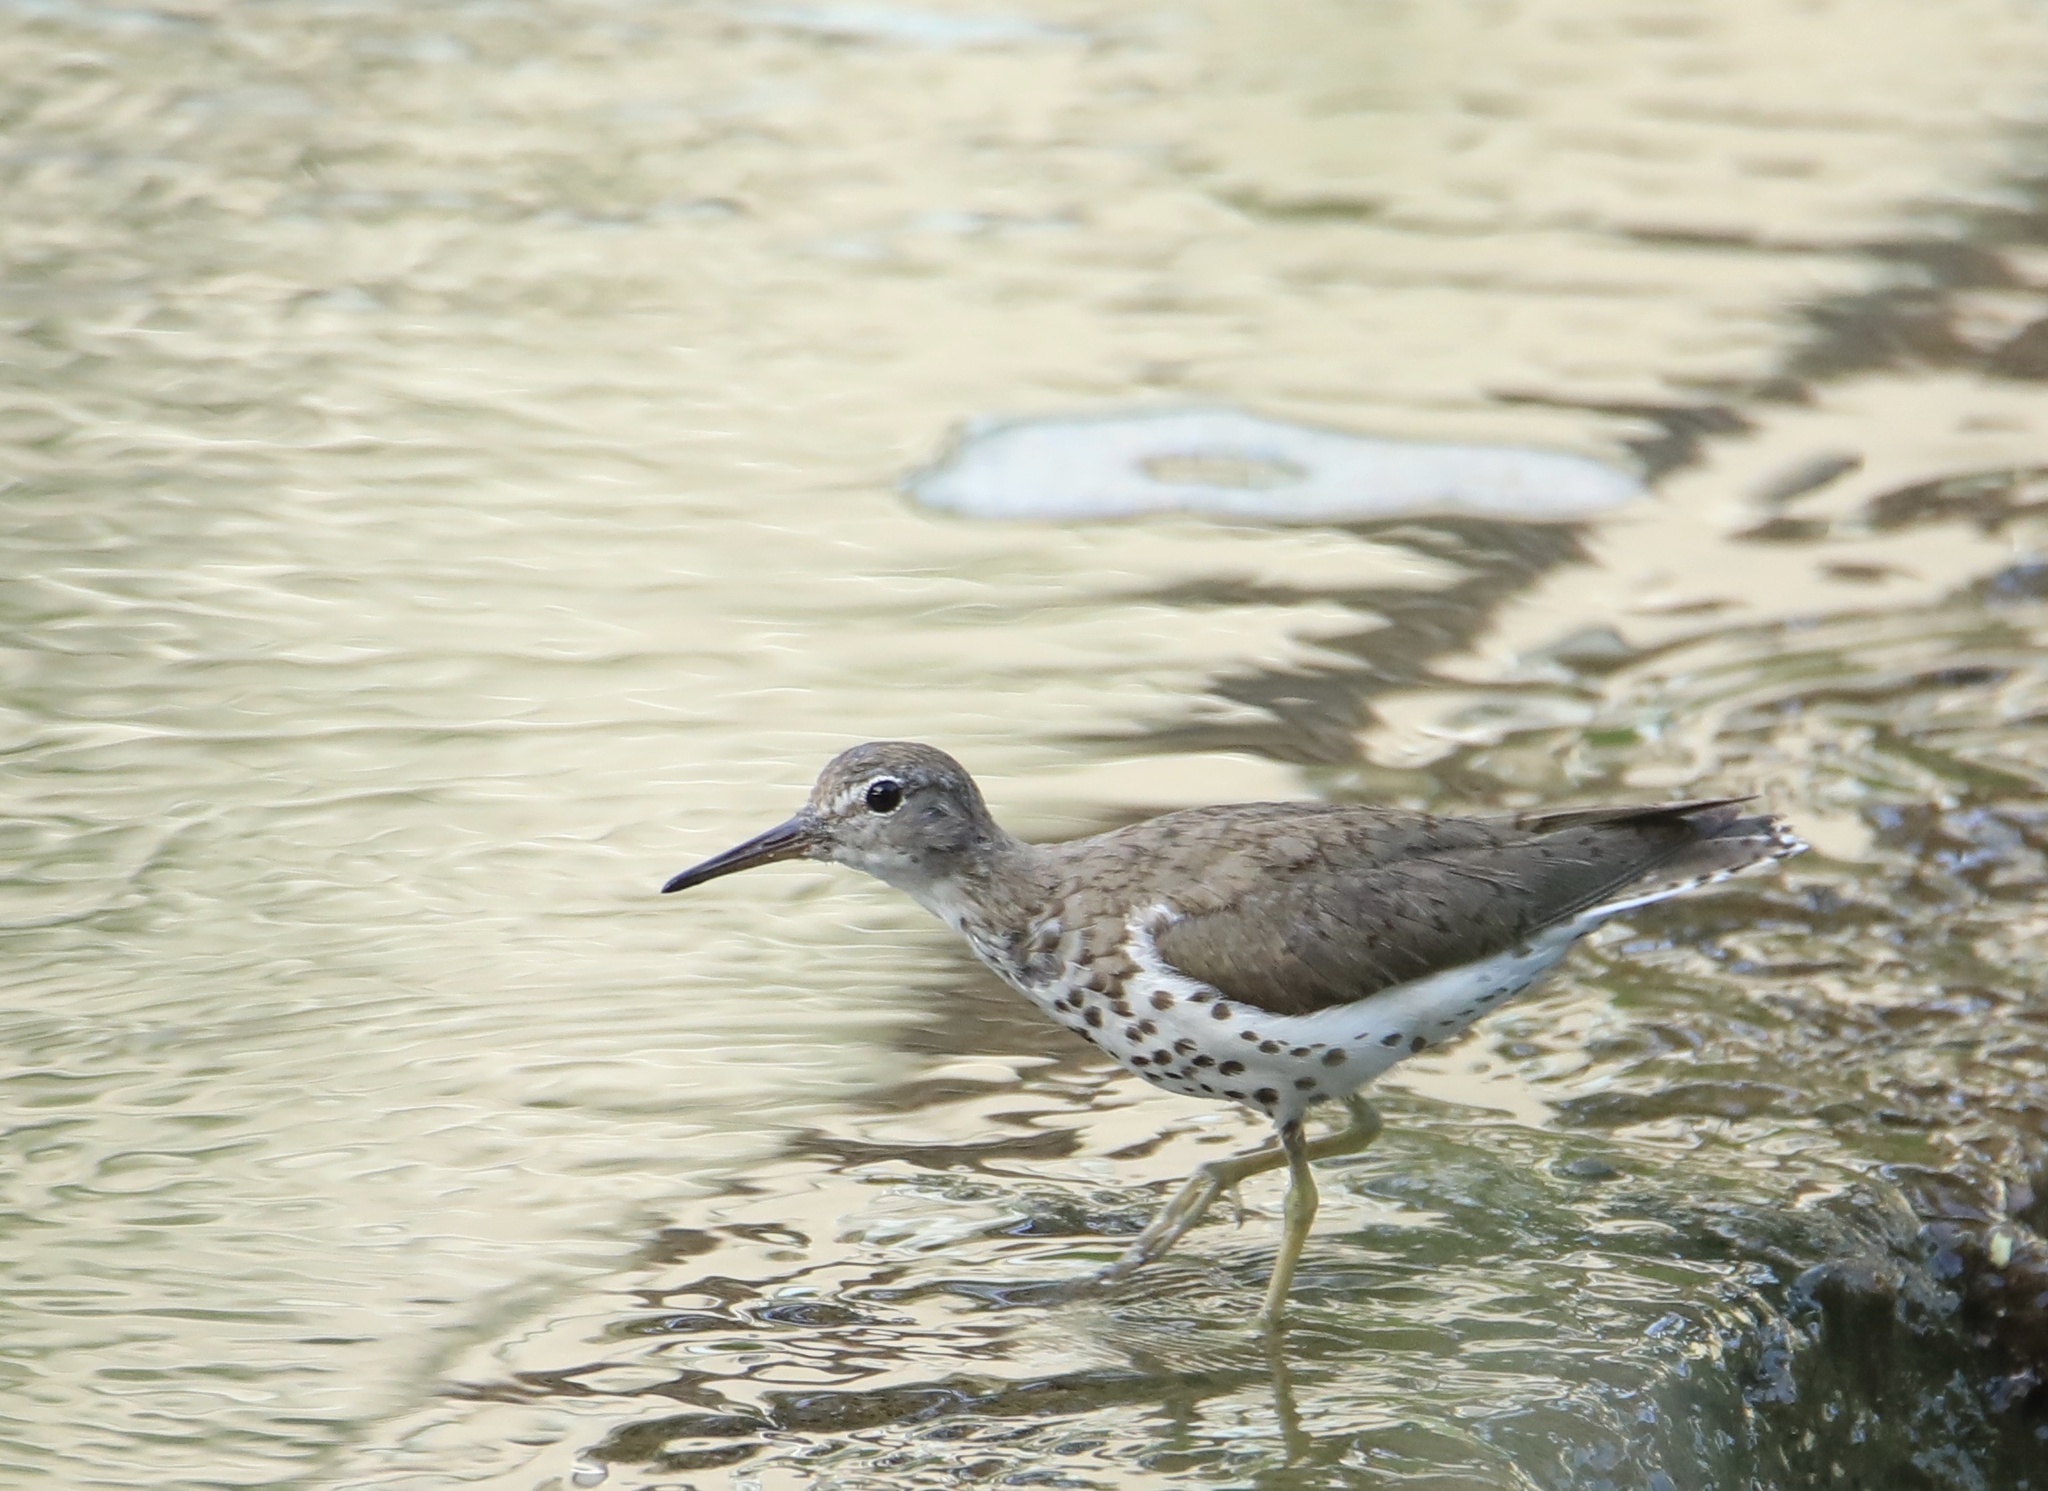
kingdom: Animalia
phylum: Chordata
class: Aves
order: Charadriiformes
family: Scolopacidae
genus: Actitis
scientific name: Actitis macularius
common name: Spotted sandpiper
